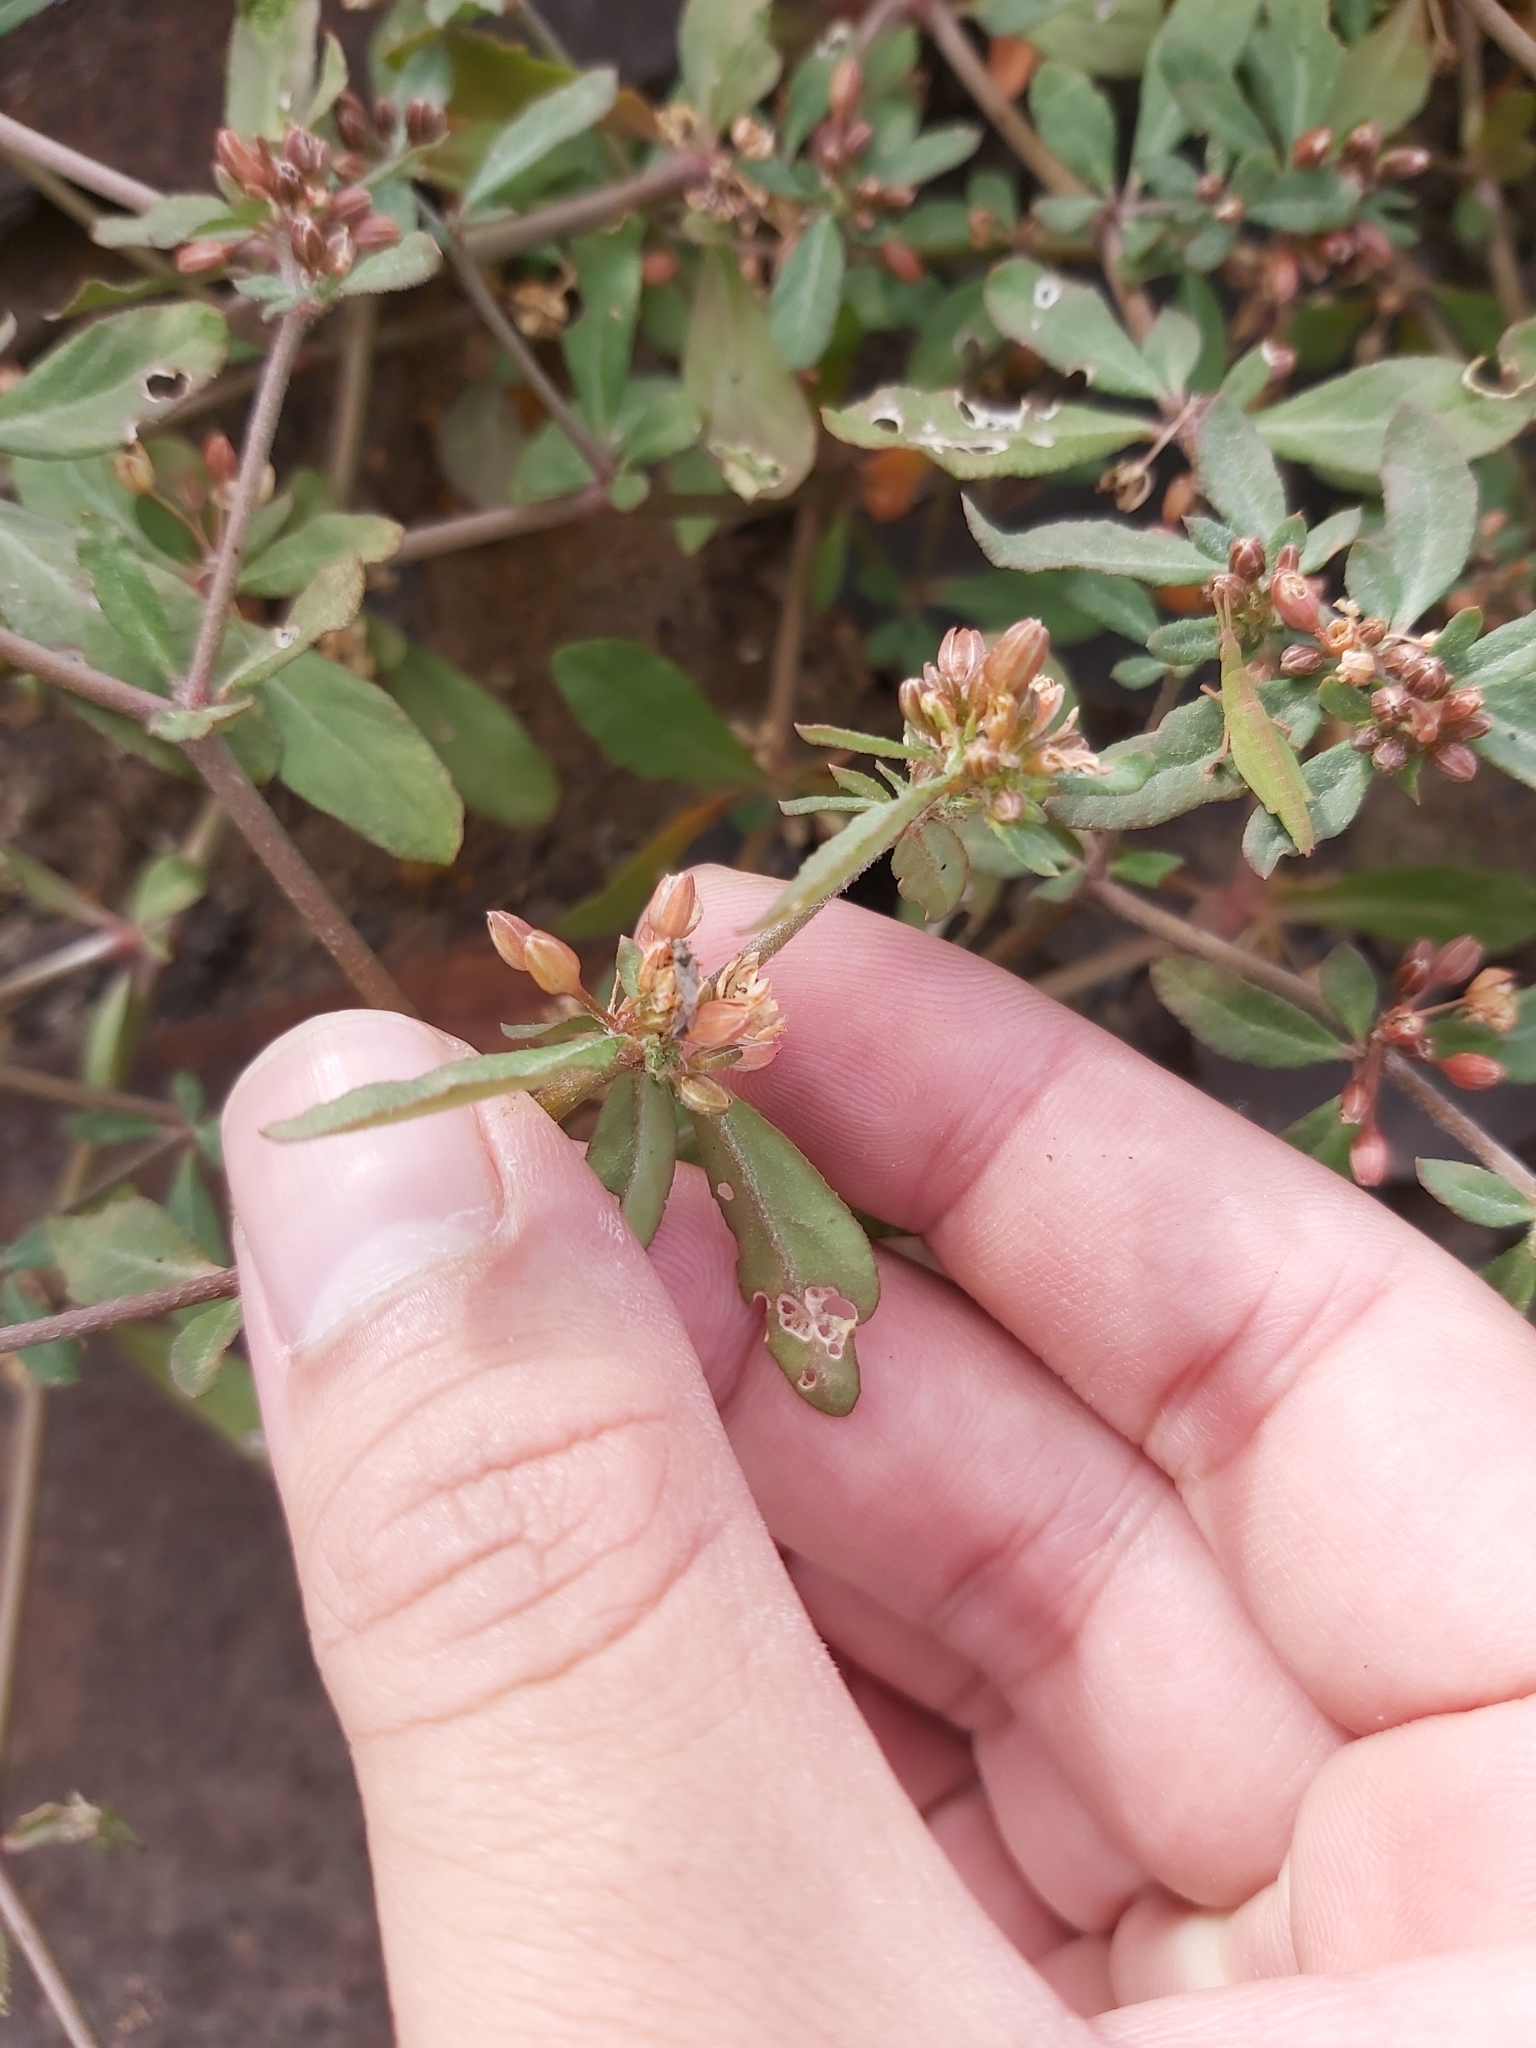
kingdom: Plantae
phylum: Tracheophyta
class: Magnoliopsida
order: Caryophyllales
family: Molluginaceae
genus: Glinus
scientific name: Glinus oppositifolius
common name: Slender carpetweed
